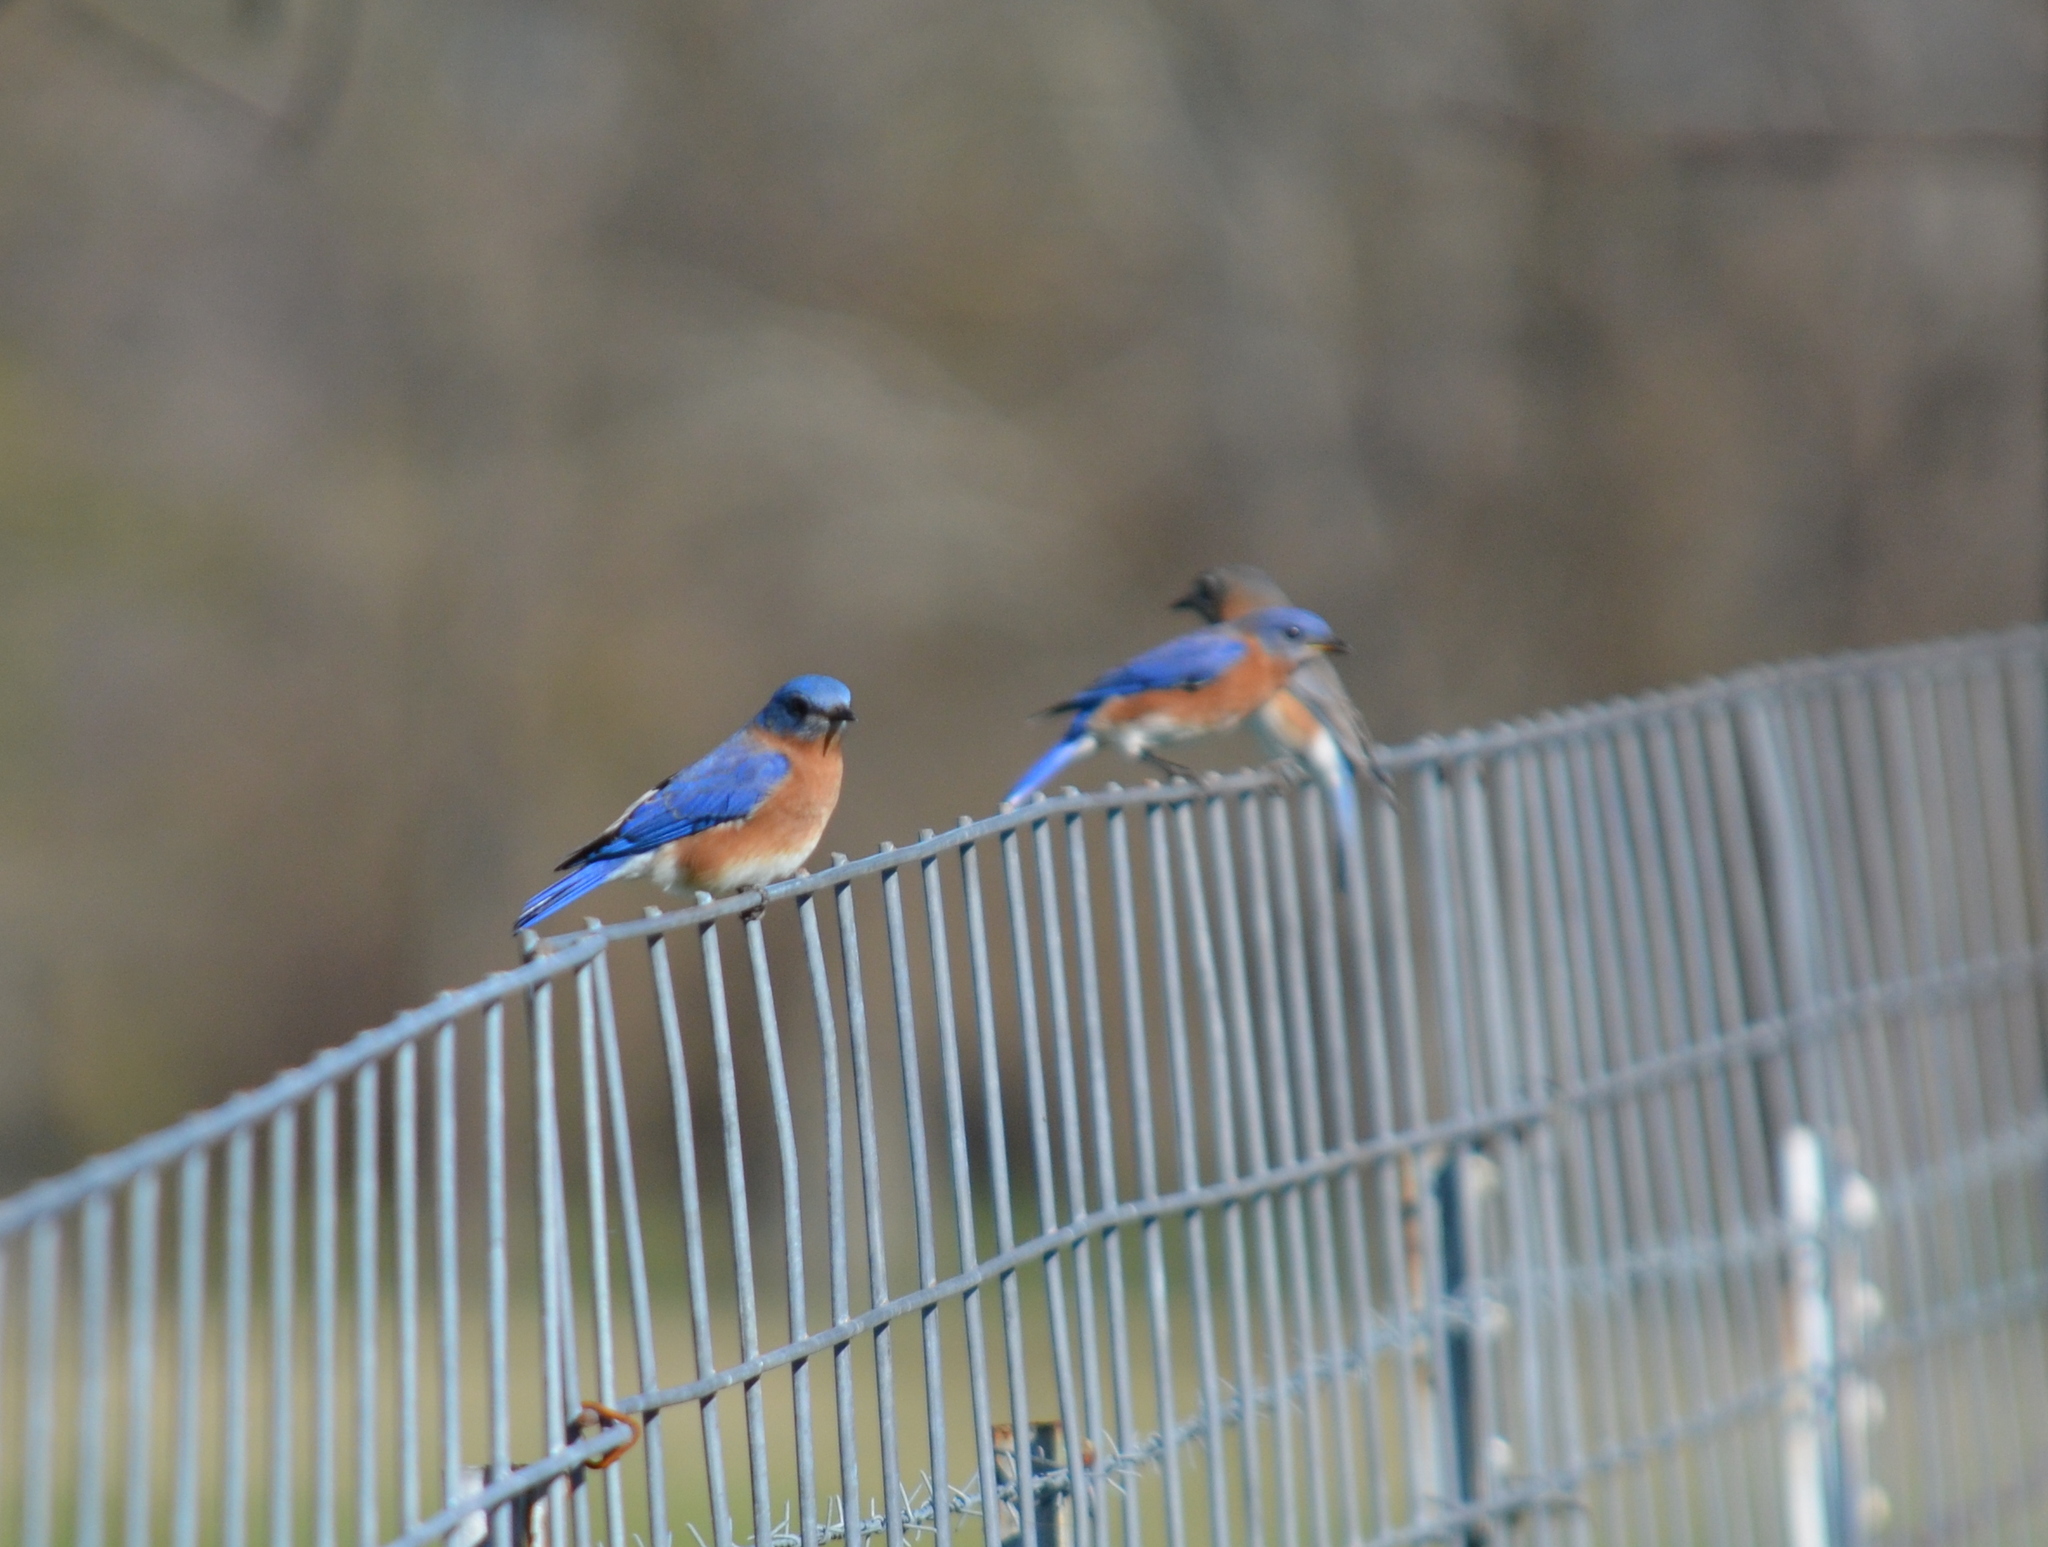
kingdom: Animalia
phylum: Chordata
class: Aves
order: Passeriformes
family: Turdidae
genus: Sialia
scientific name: Sialia sialis
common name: Eastern bluebird
